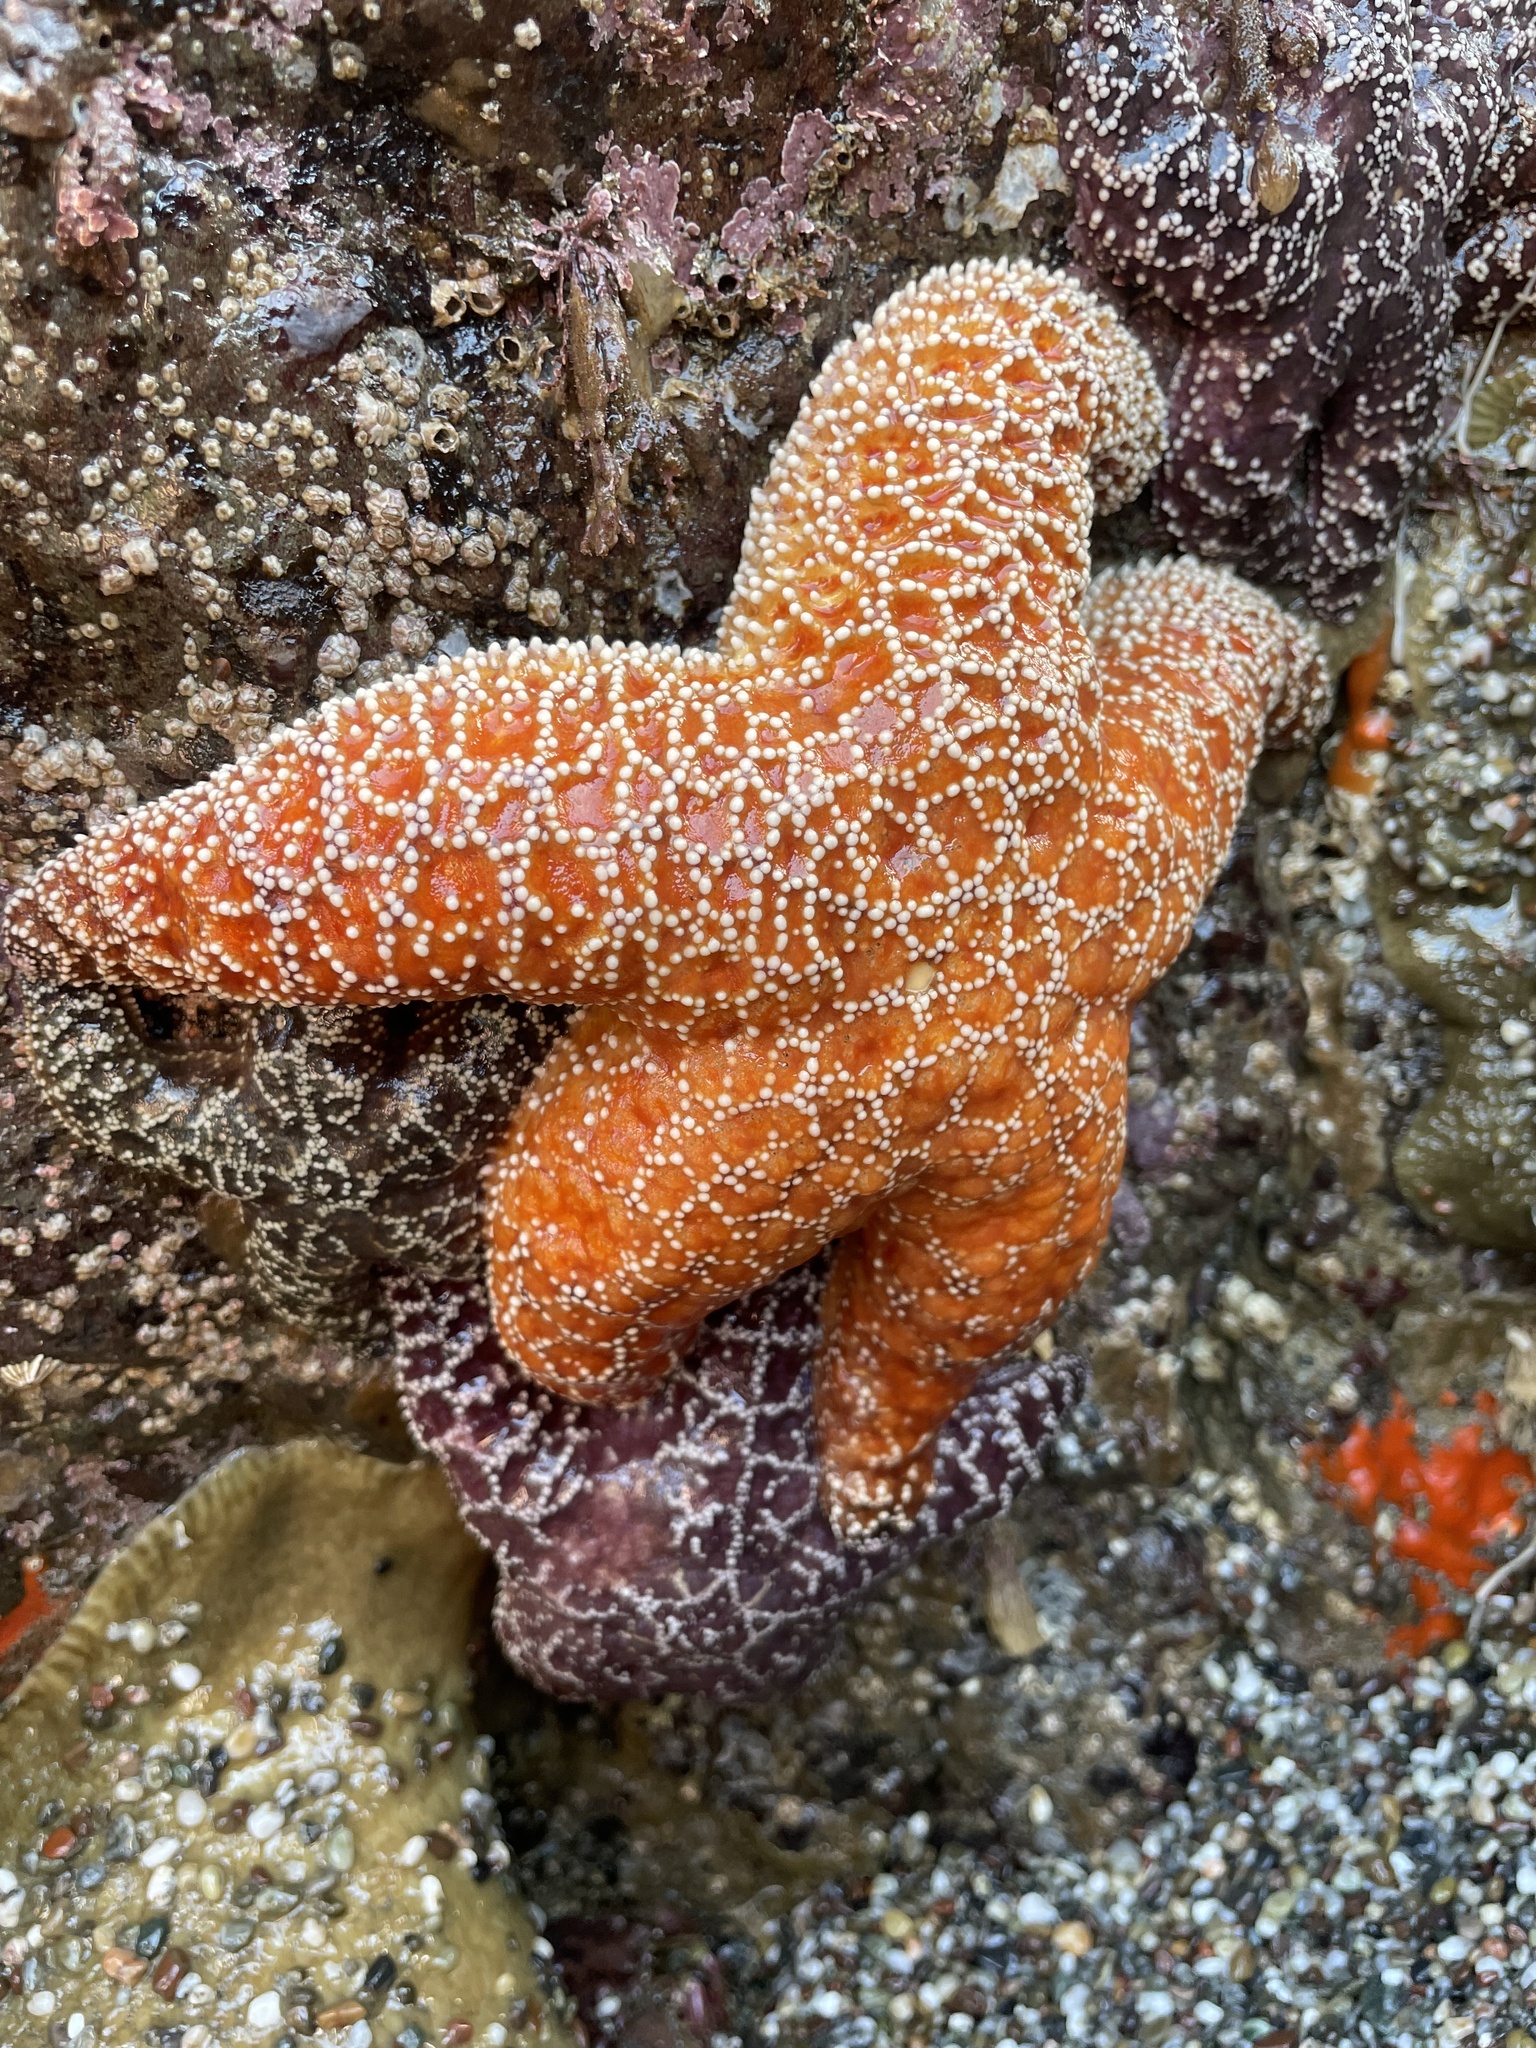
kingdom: Animalia
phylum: Echinodermata
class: Asteroidea
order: Forcipulatida
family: Asteriidae
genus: Pisaster
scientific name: Pisaster ochraceus
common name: Ochre stars
